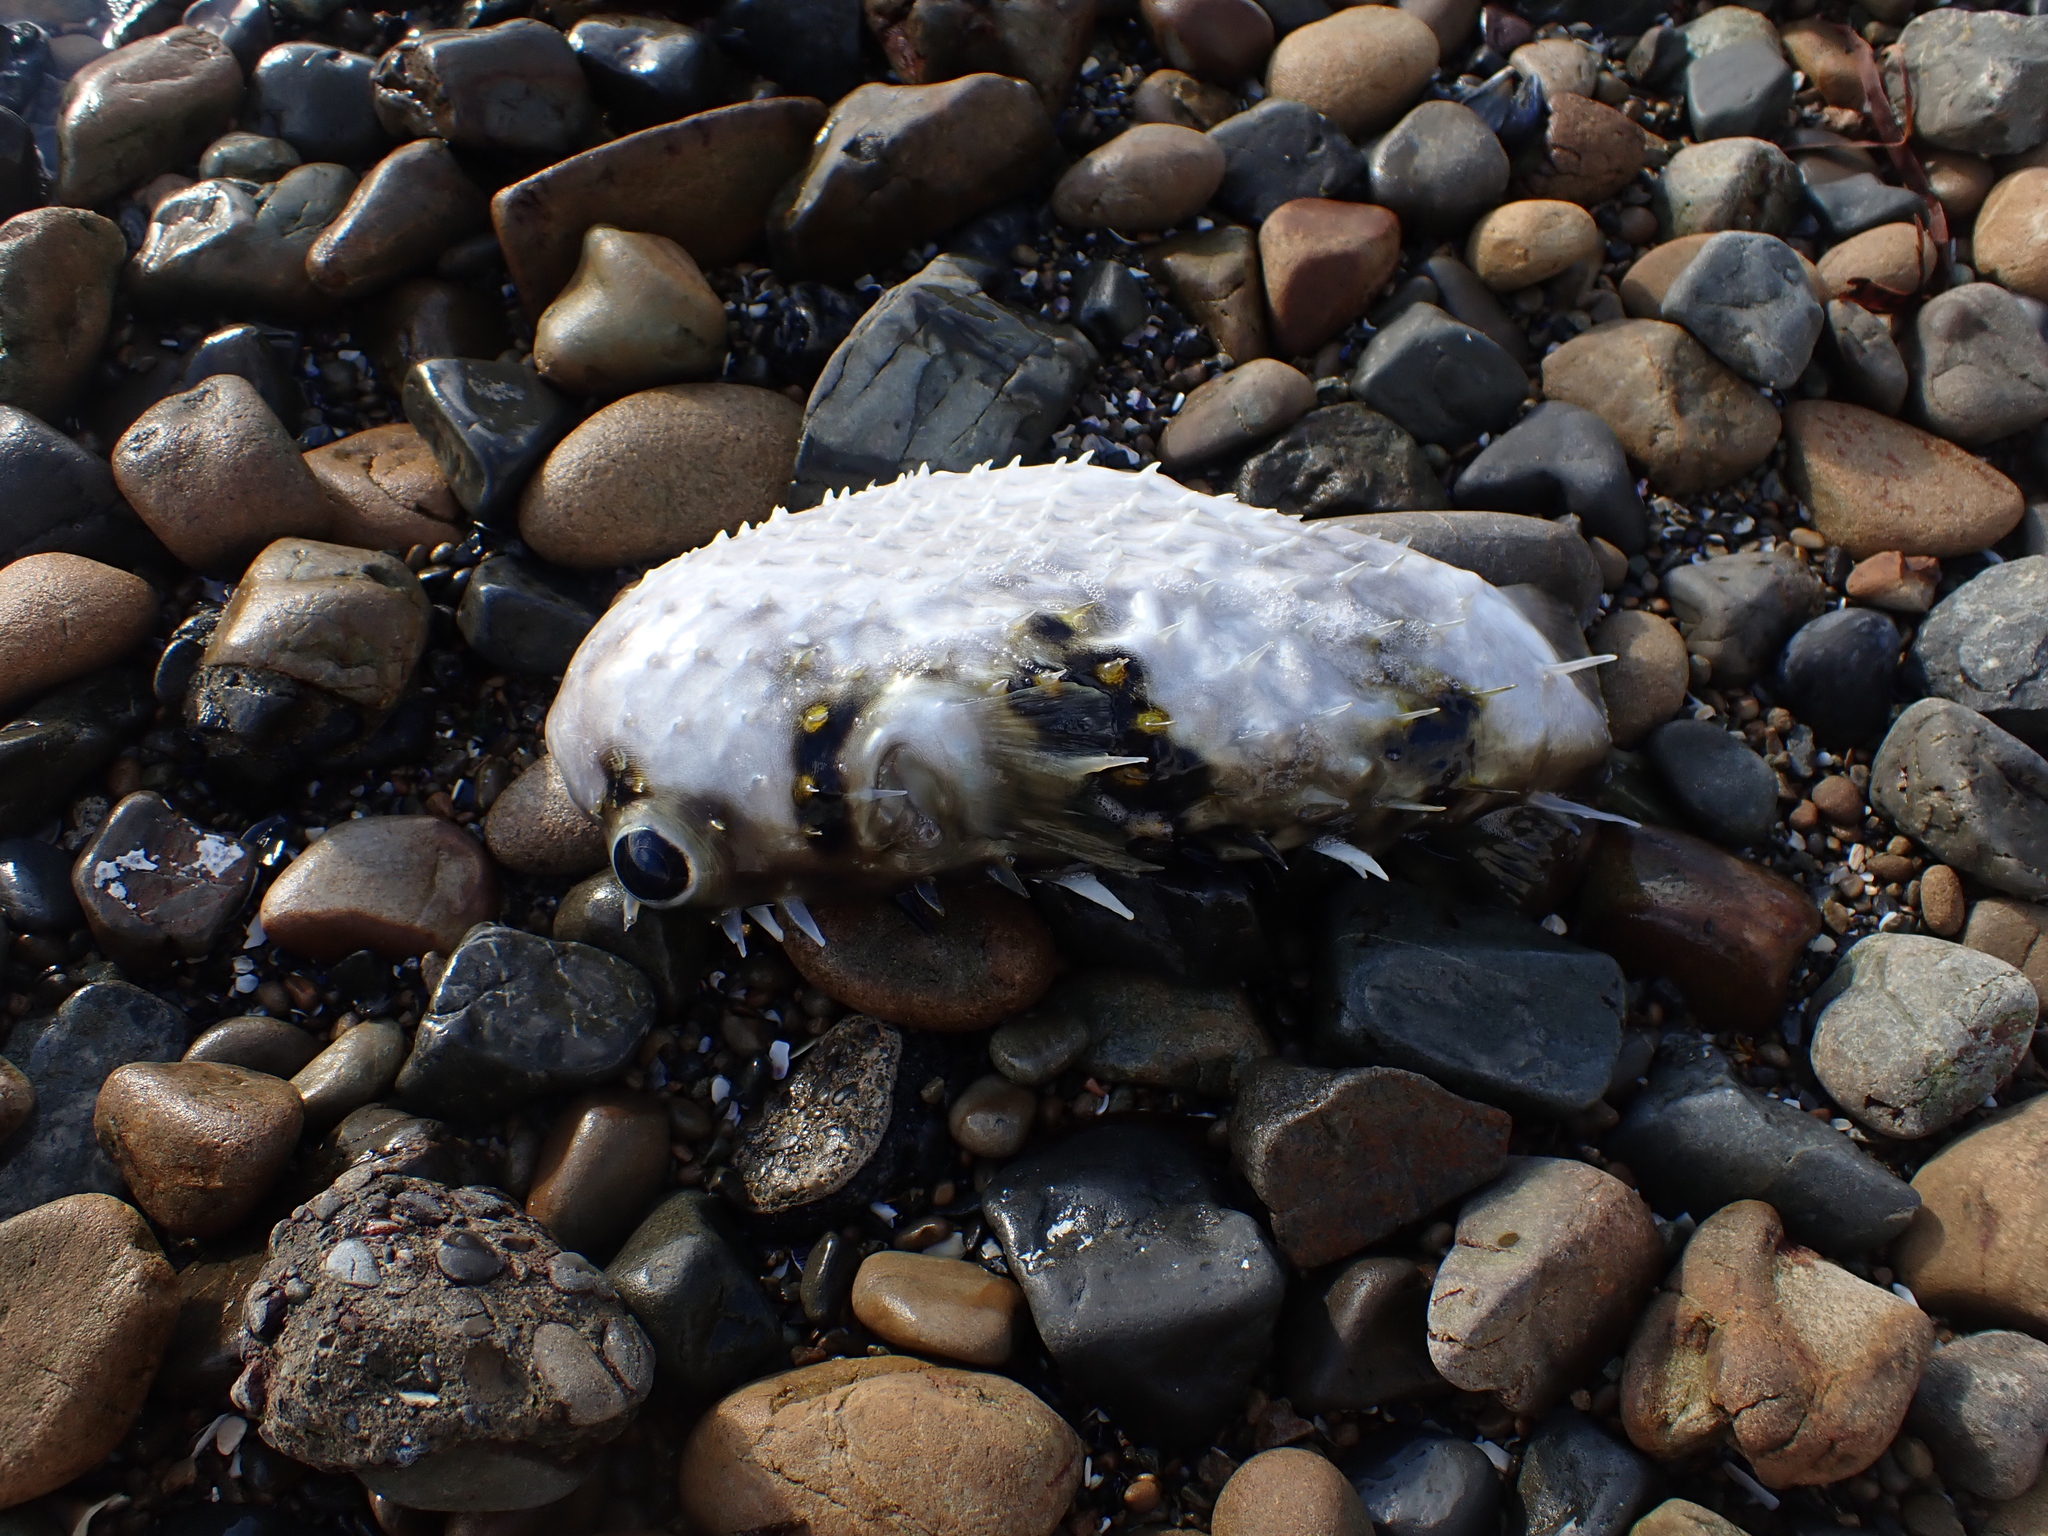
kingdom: Animalia
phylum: Chordata
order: Tetraodontiformes
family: Diodontidae
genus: Allomycterus
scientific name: Allomycterus pilatus
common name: No common name
